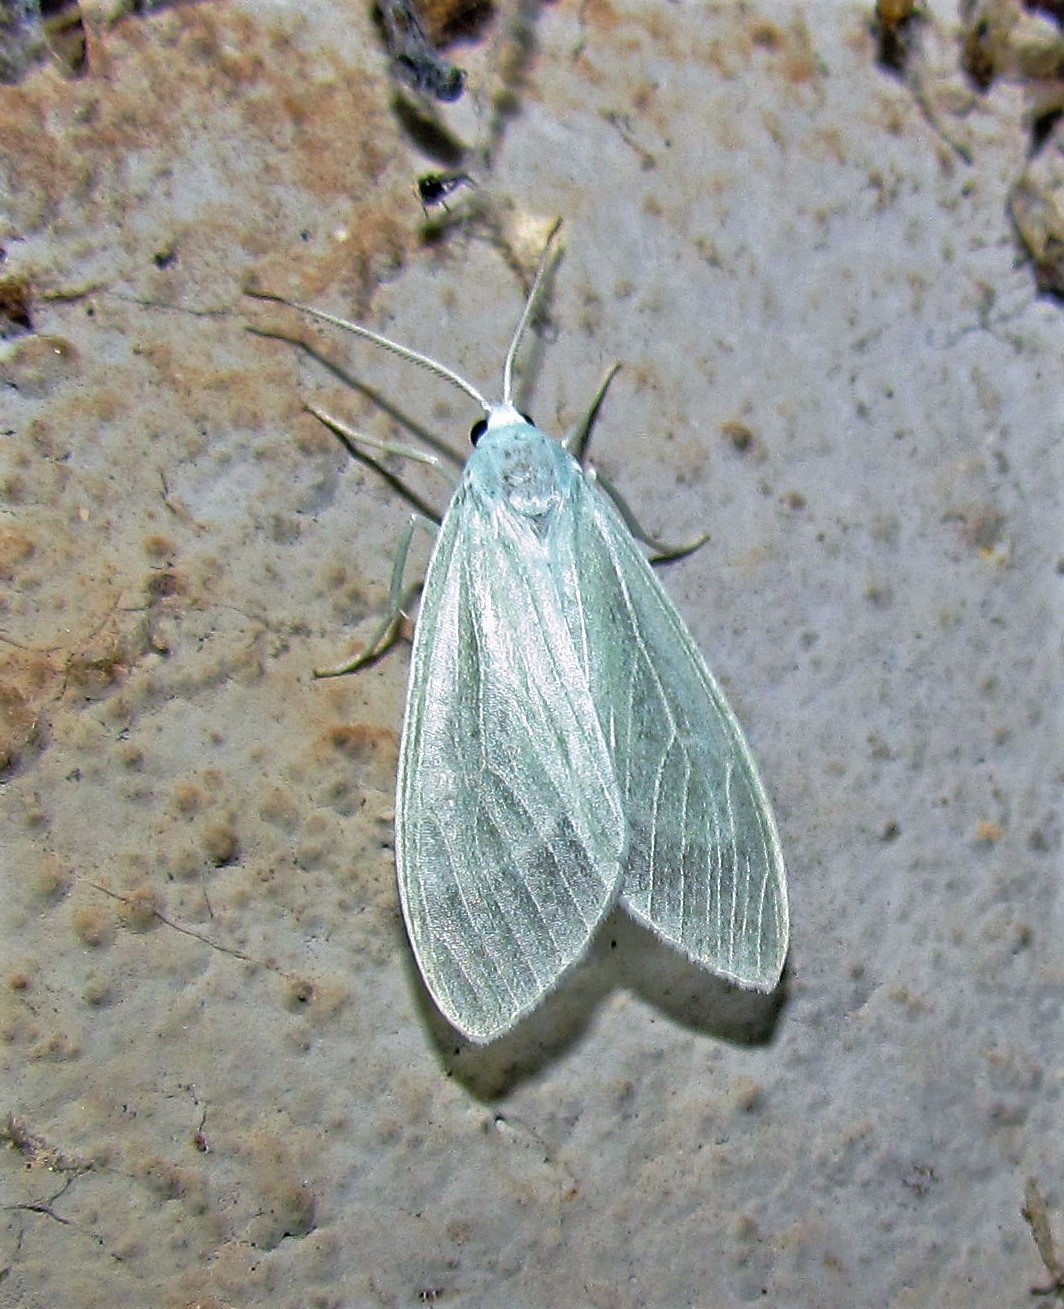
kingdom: Animalia
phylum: Arthropoda
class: Insecta
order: Lepidoptera
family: Erebidae
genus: Eucereon
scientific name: Eucereon vestalis
